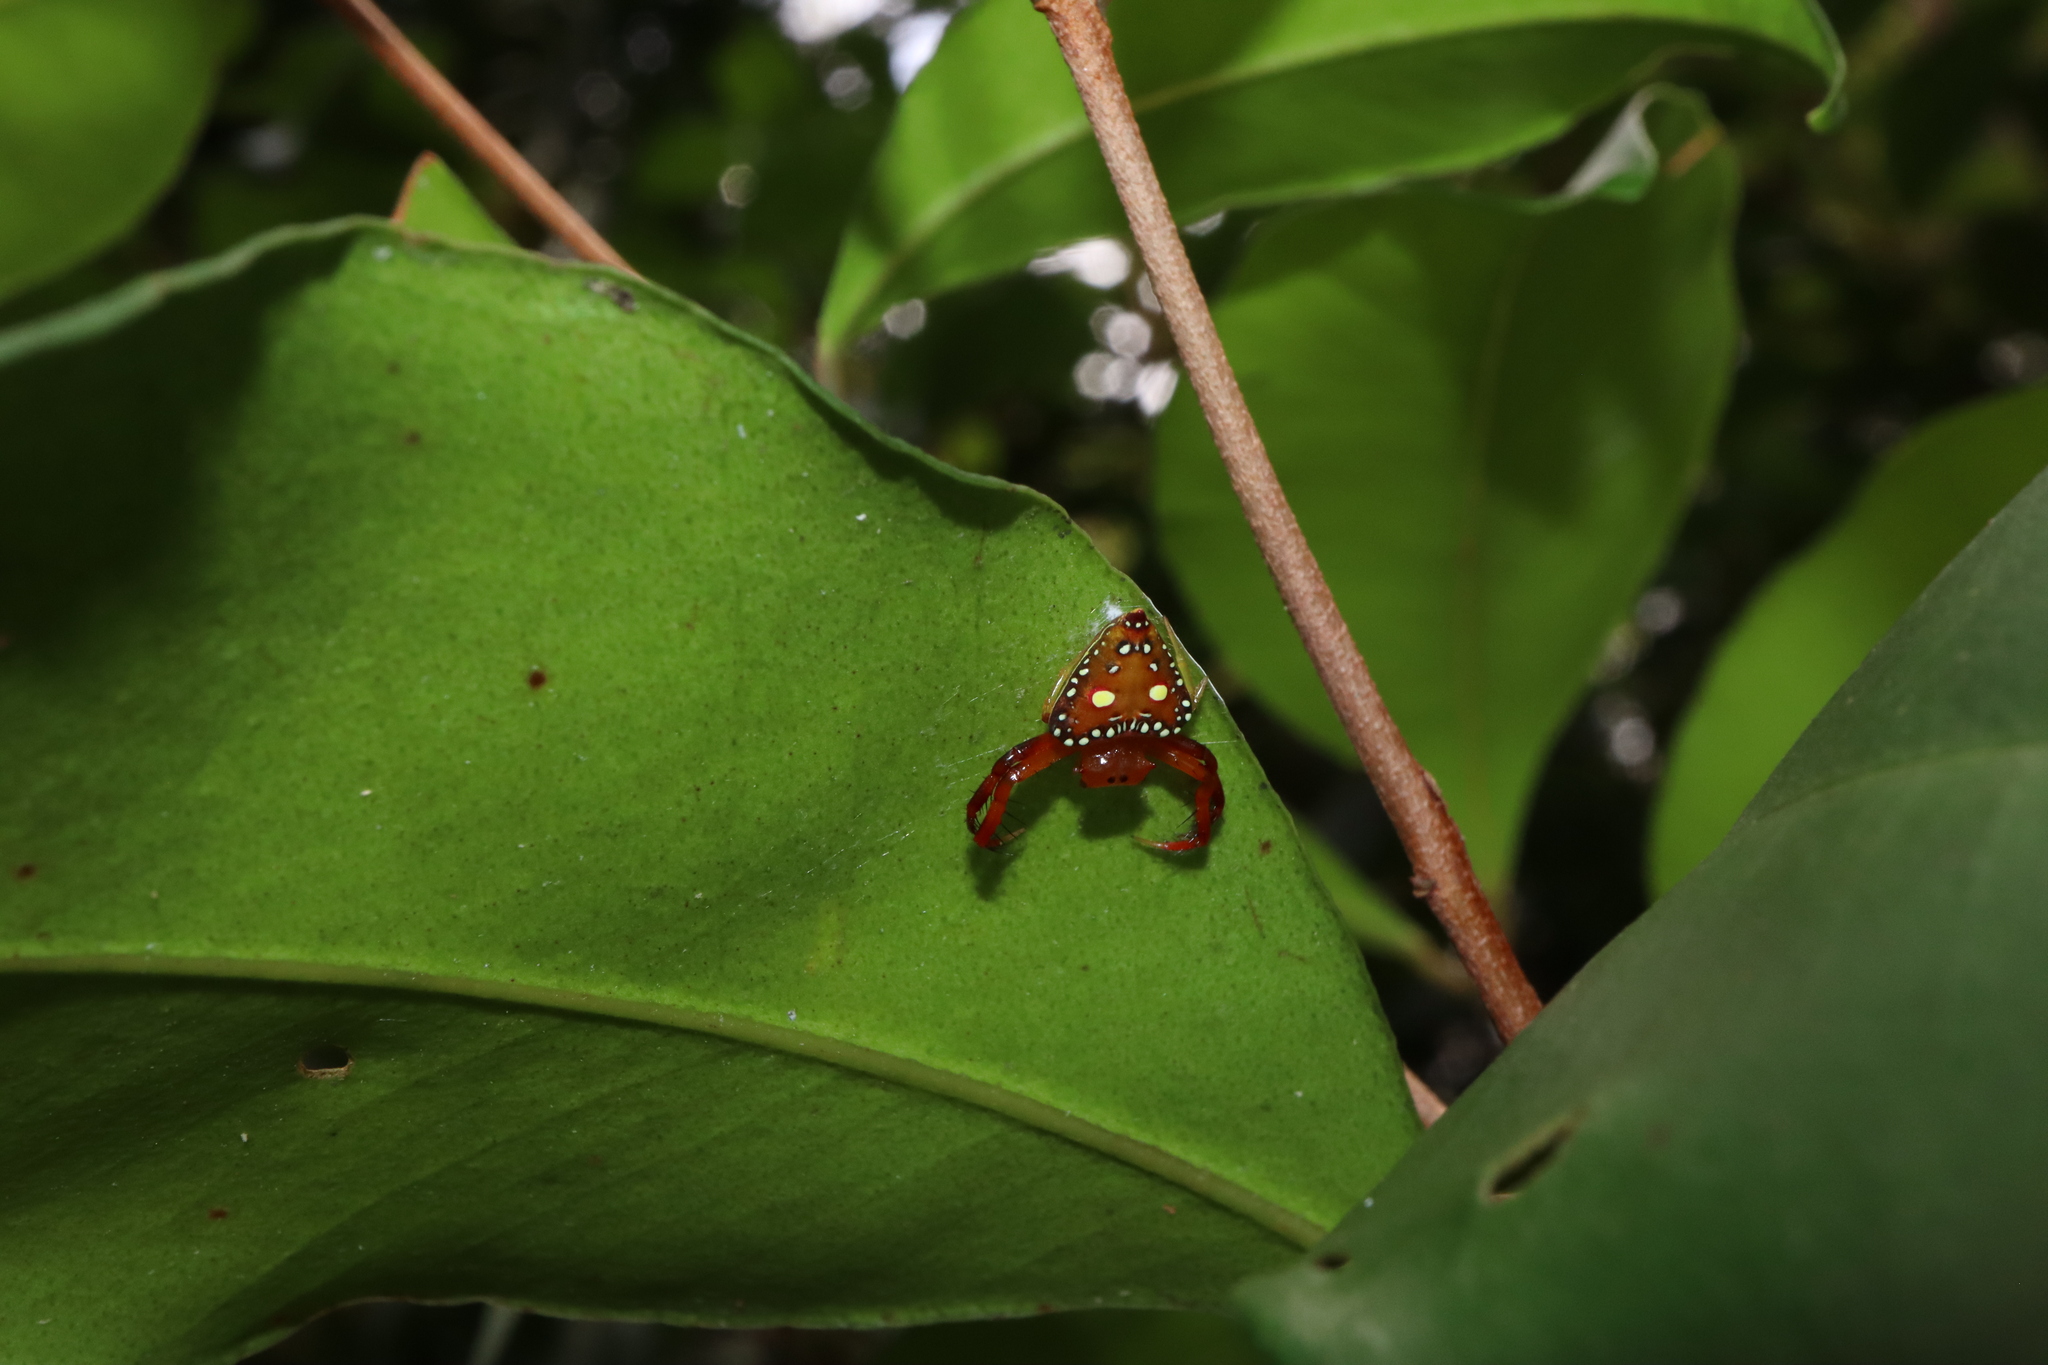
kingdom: Animalia
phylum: Arthropoda
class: Arachnida
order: Araneae
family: Arkyidae
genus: Arkys
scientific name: Arkys lancearius
